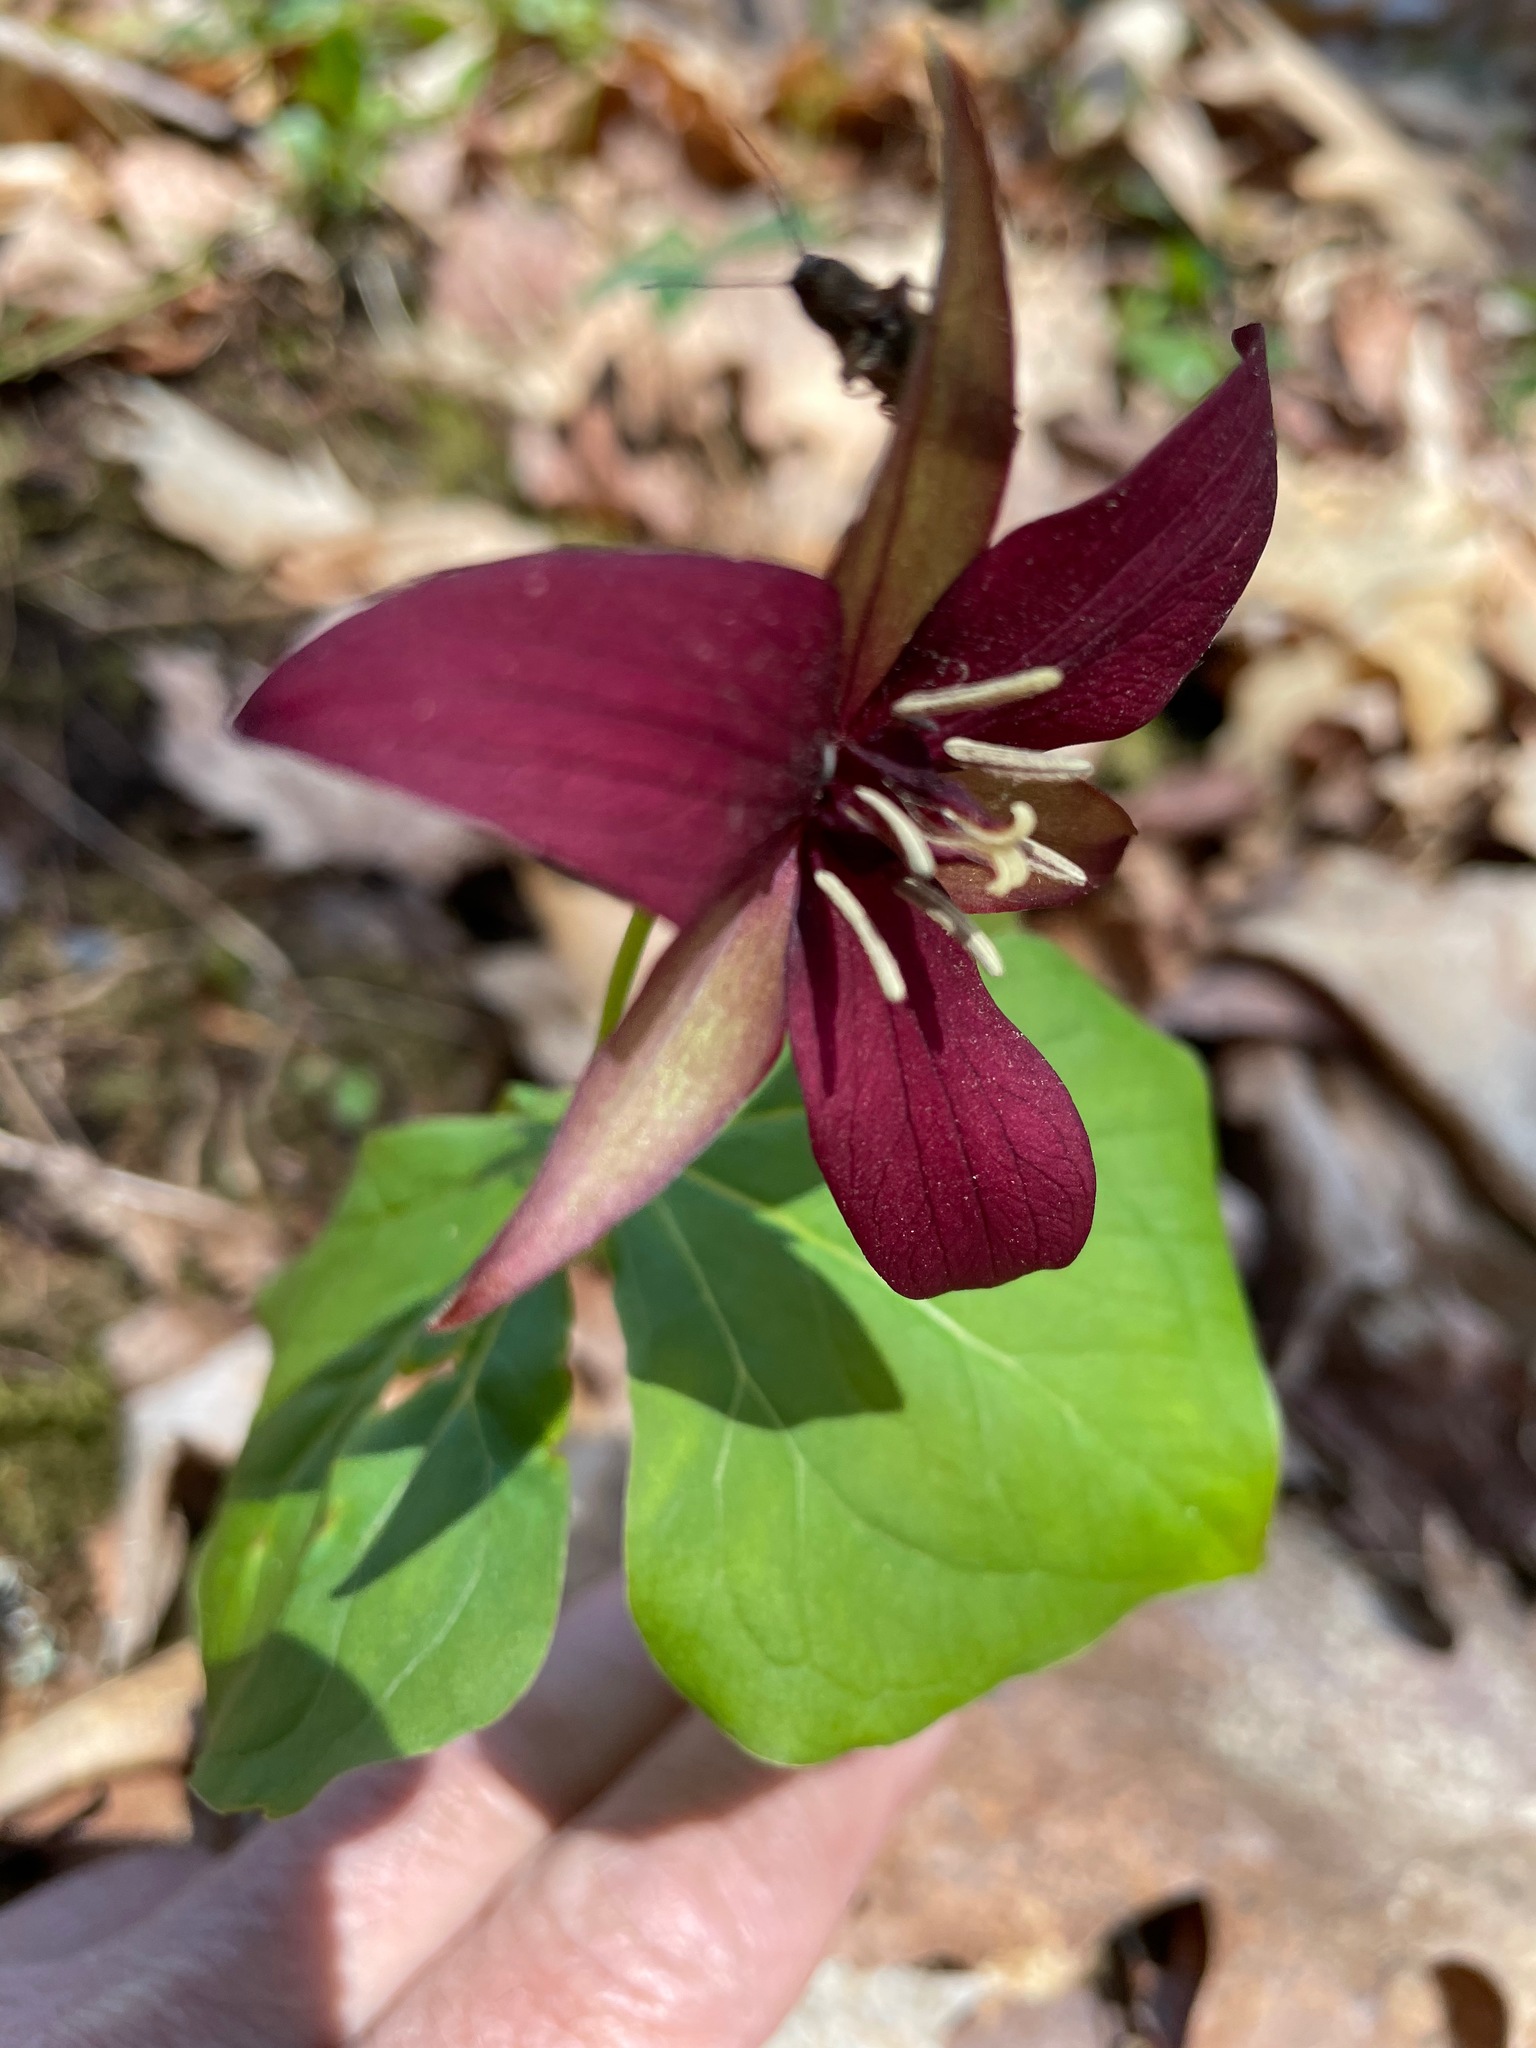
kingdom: Plantae
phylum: Tracheophyta
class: Liliopsida
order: Liliales
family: Melanthiaceae
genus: Trillium
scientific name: Trillium erectum
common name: Purple trillium
